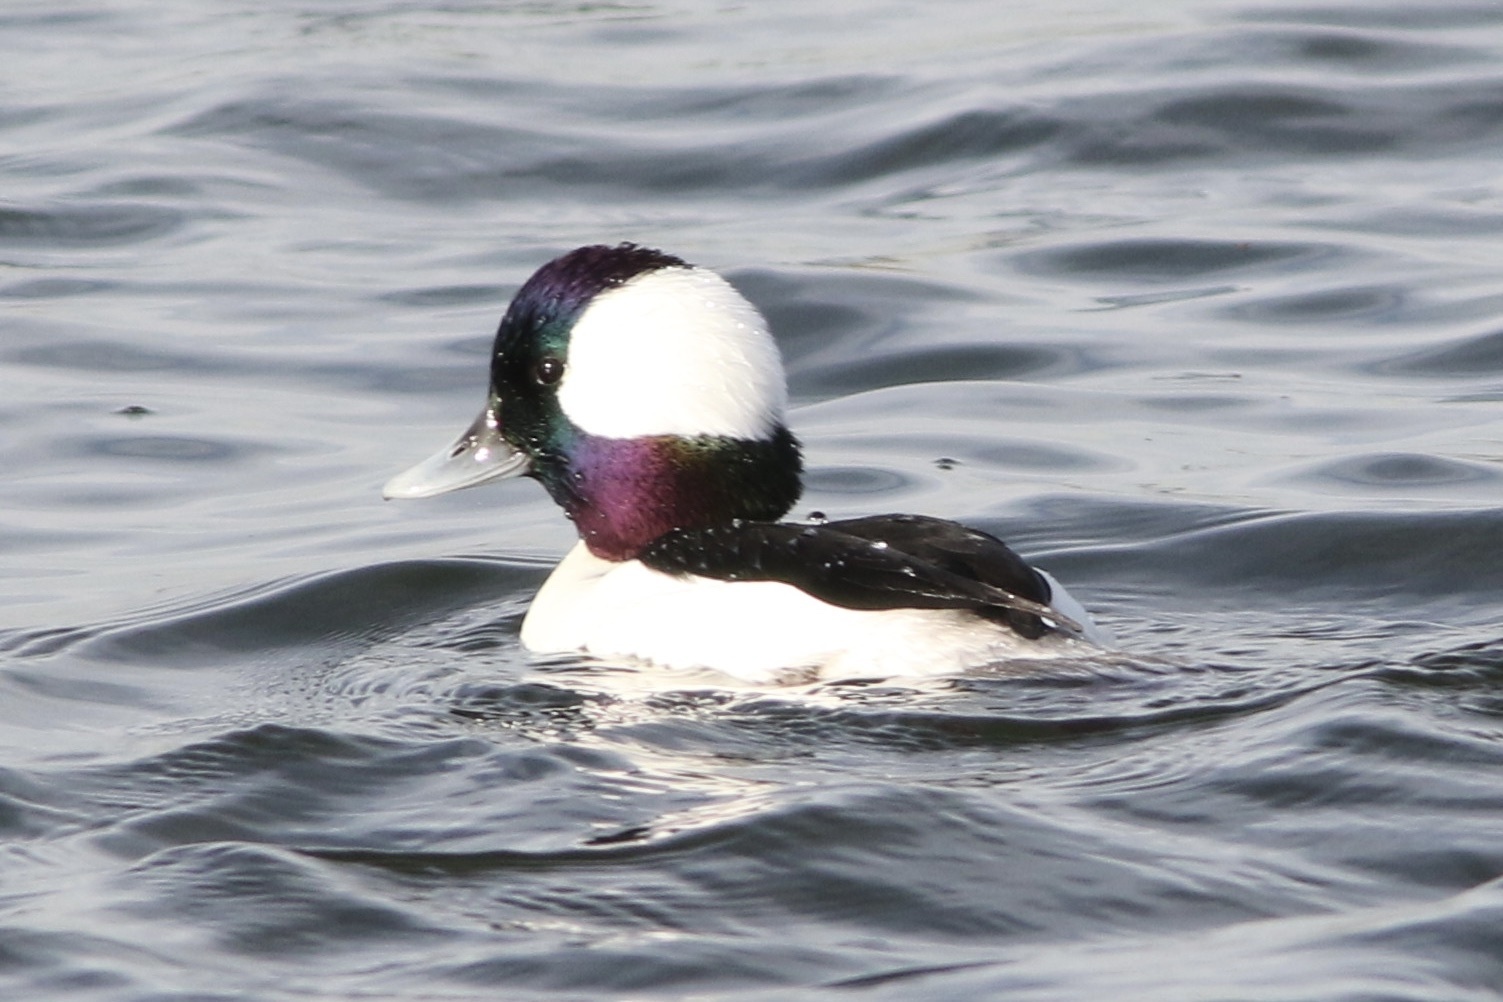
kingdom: Animalia
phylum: Chordata
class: Aves
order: Anseriformes
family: Anatidae
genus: Bucephala
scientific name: Bucephala albeola
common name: Bufflehead
